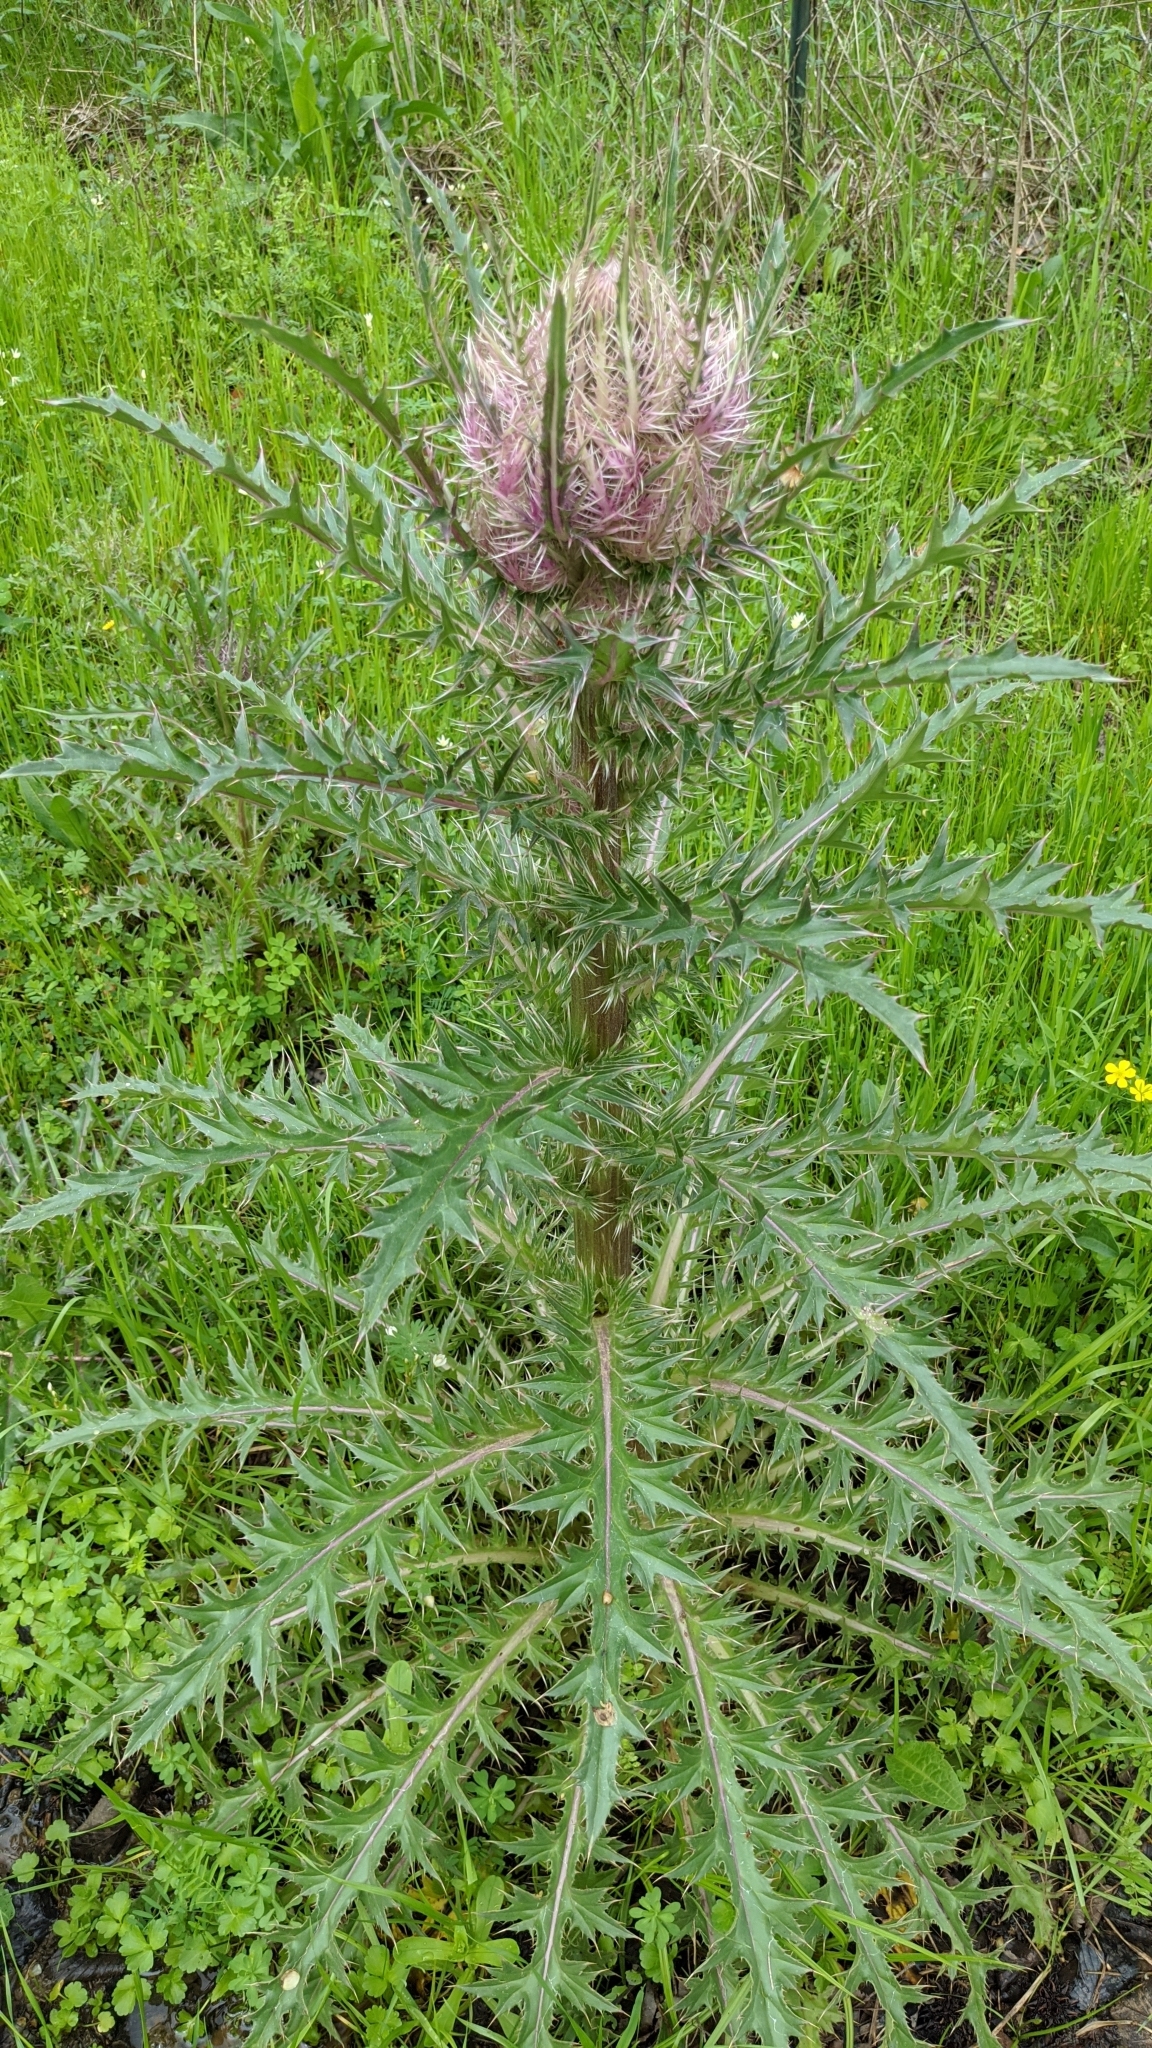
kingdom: Plantae
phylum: Tracheophyta
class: Magnoliopsida
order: Asterales
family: Asteraceae
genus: Cirsium
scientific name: Cirsium horridulum
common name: Bristly thistle
